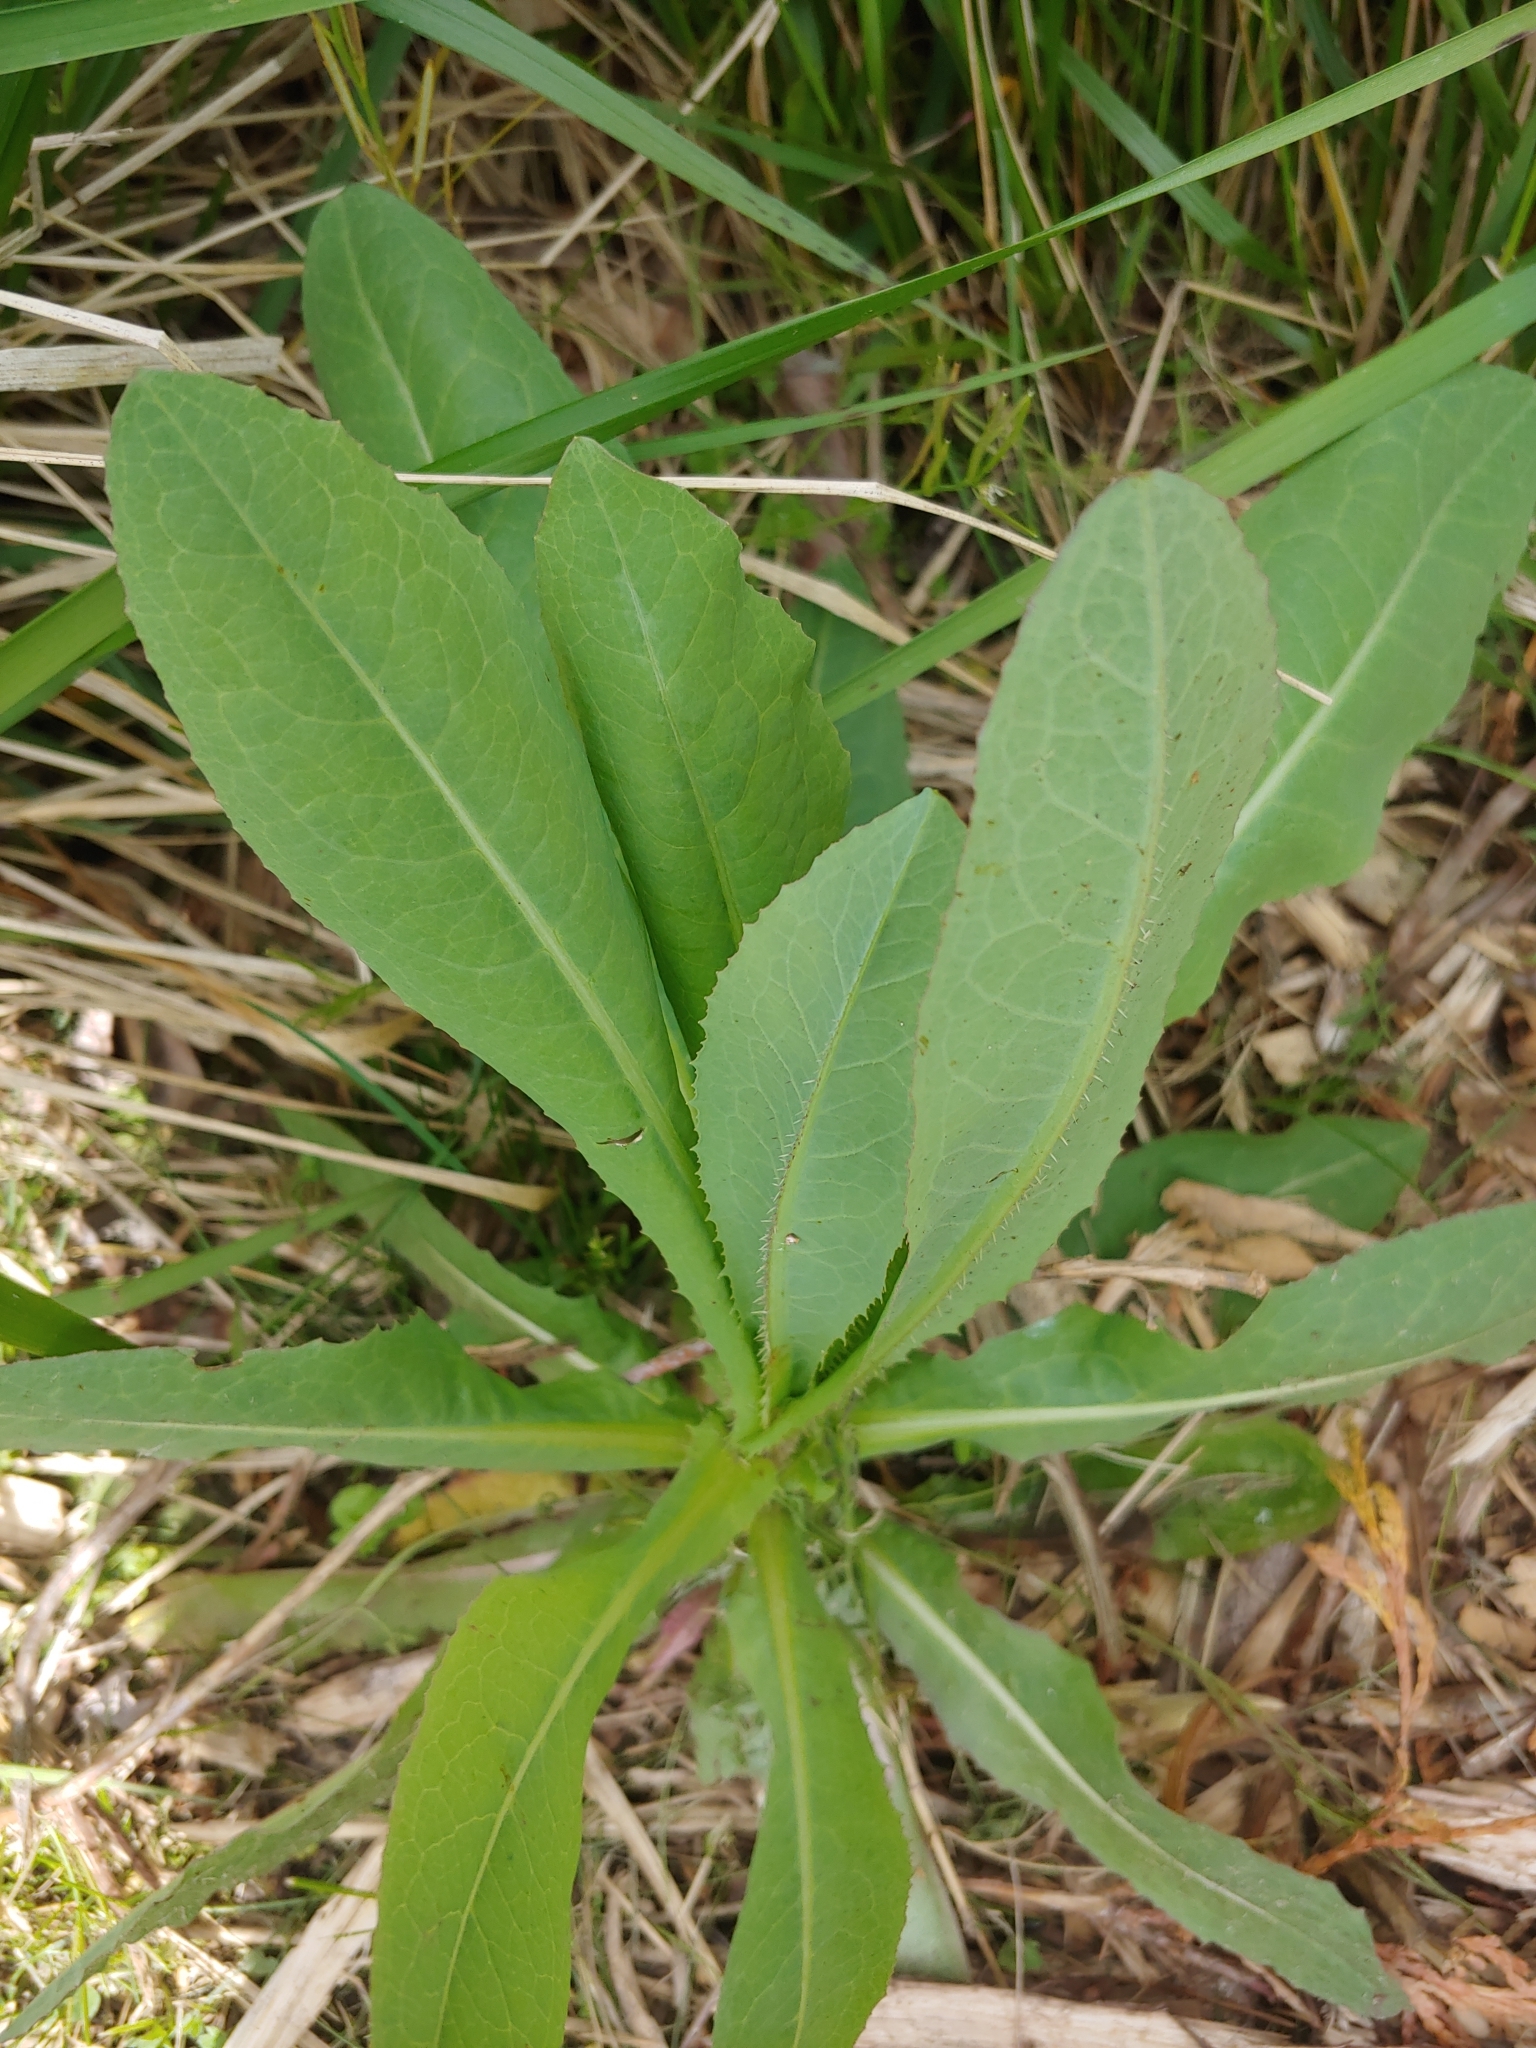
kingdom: Plantae
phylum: Tracheophyta
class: Magnoliopsida
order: Asterales
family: Asteraceae
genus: Lactuca
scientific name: Lactuca serriola
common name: Prickly lettuce
